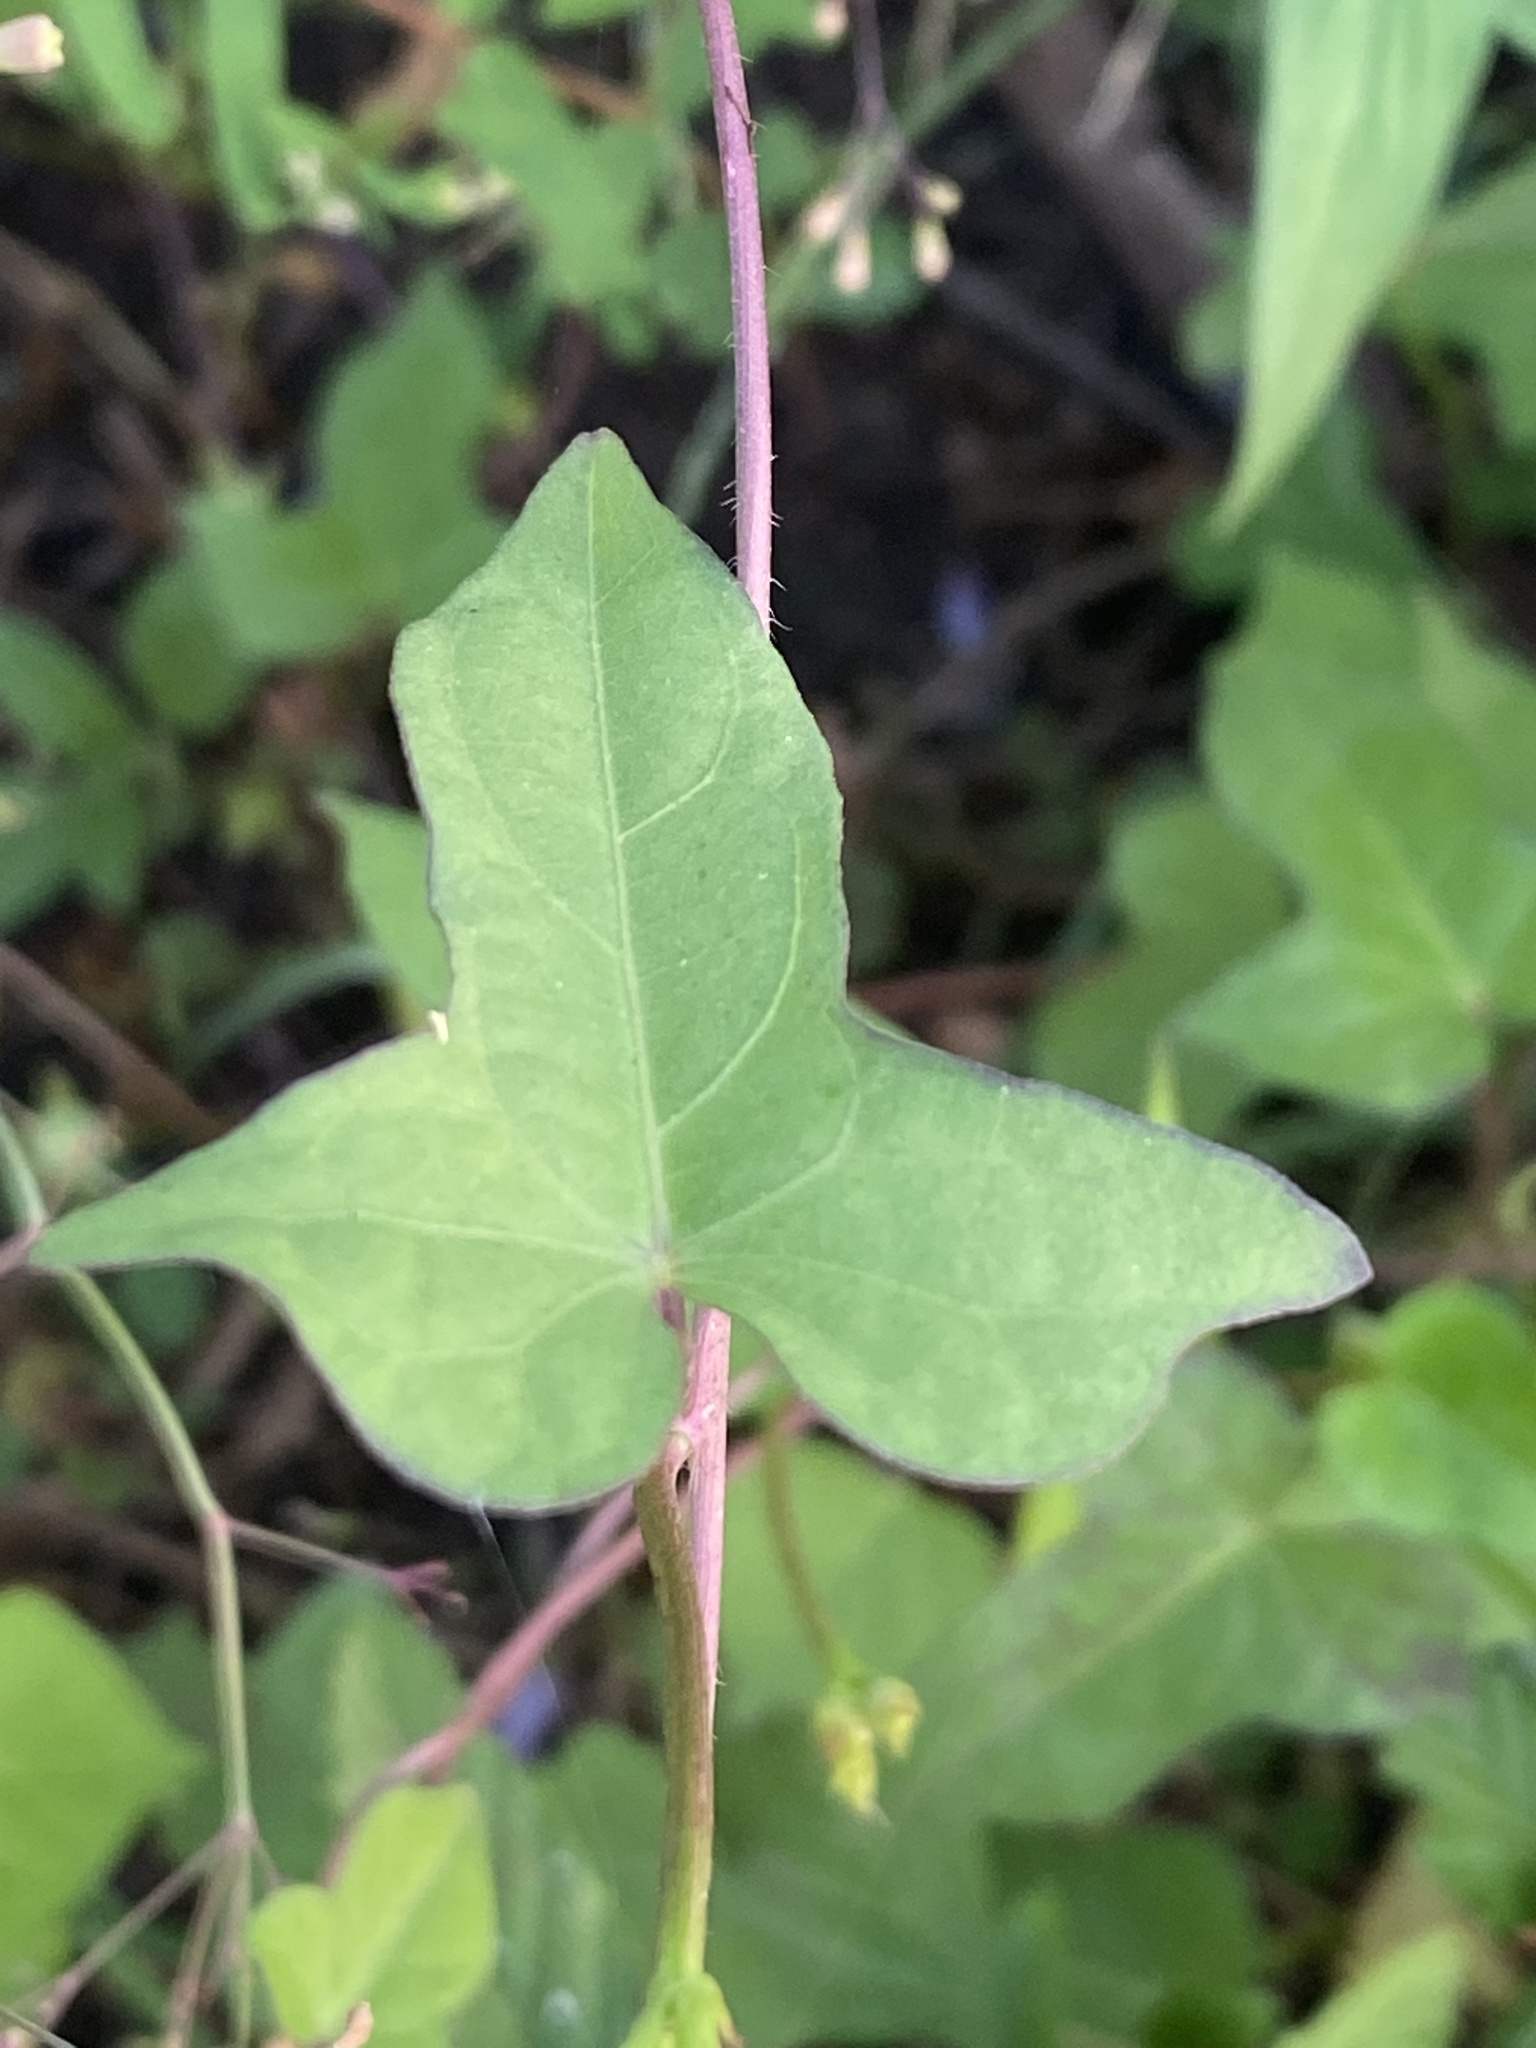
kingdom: Plantae
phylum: Tracheophyta
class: Magnoliopsida
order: Solanales
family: Convolvulaceae
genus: Ipomoea
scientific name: Ipomoea triloba
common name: Little-bell
